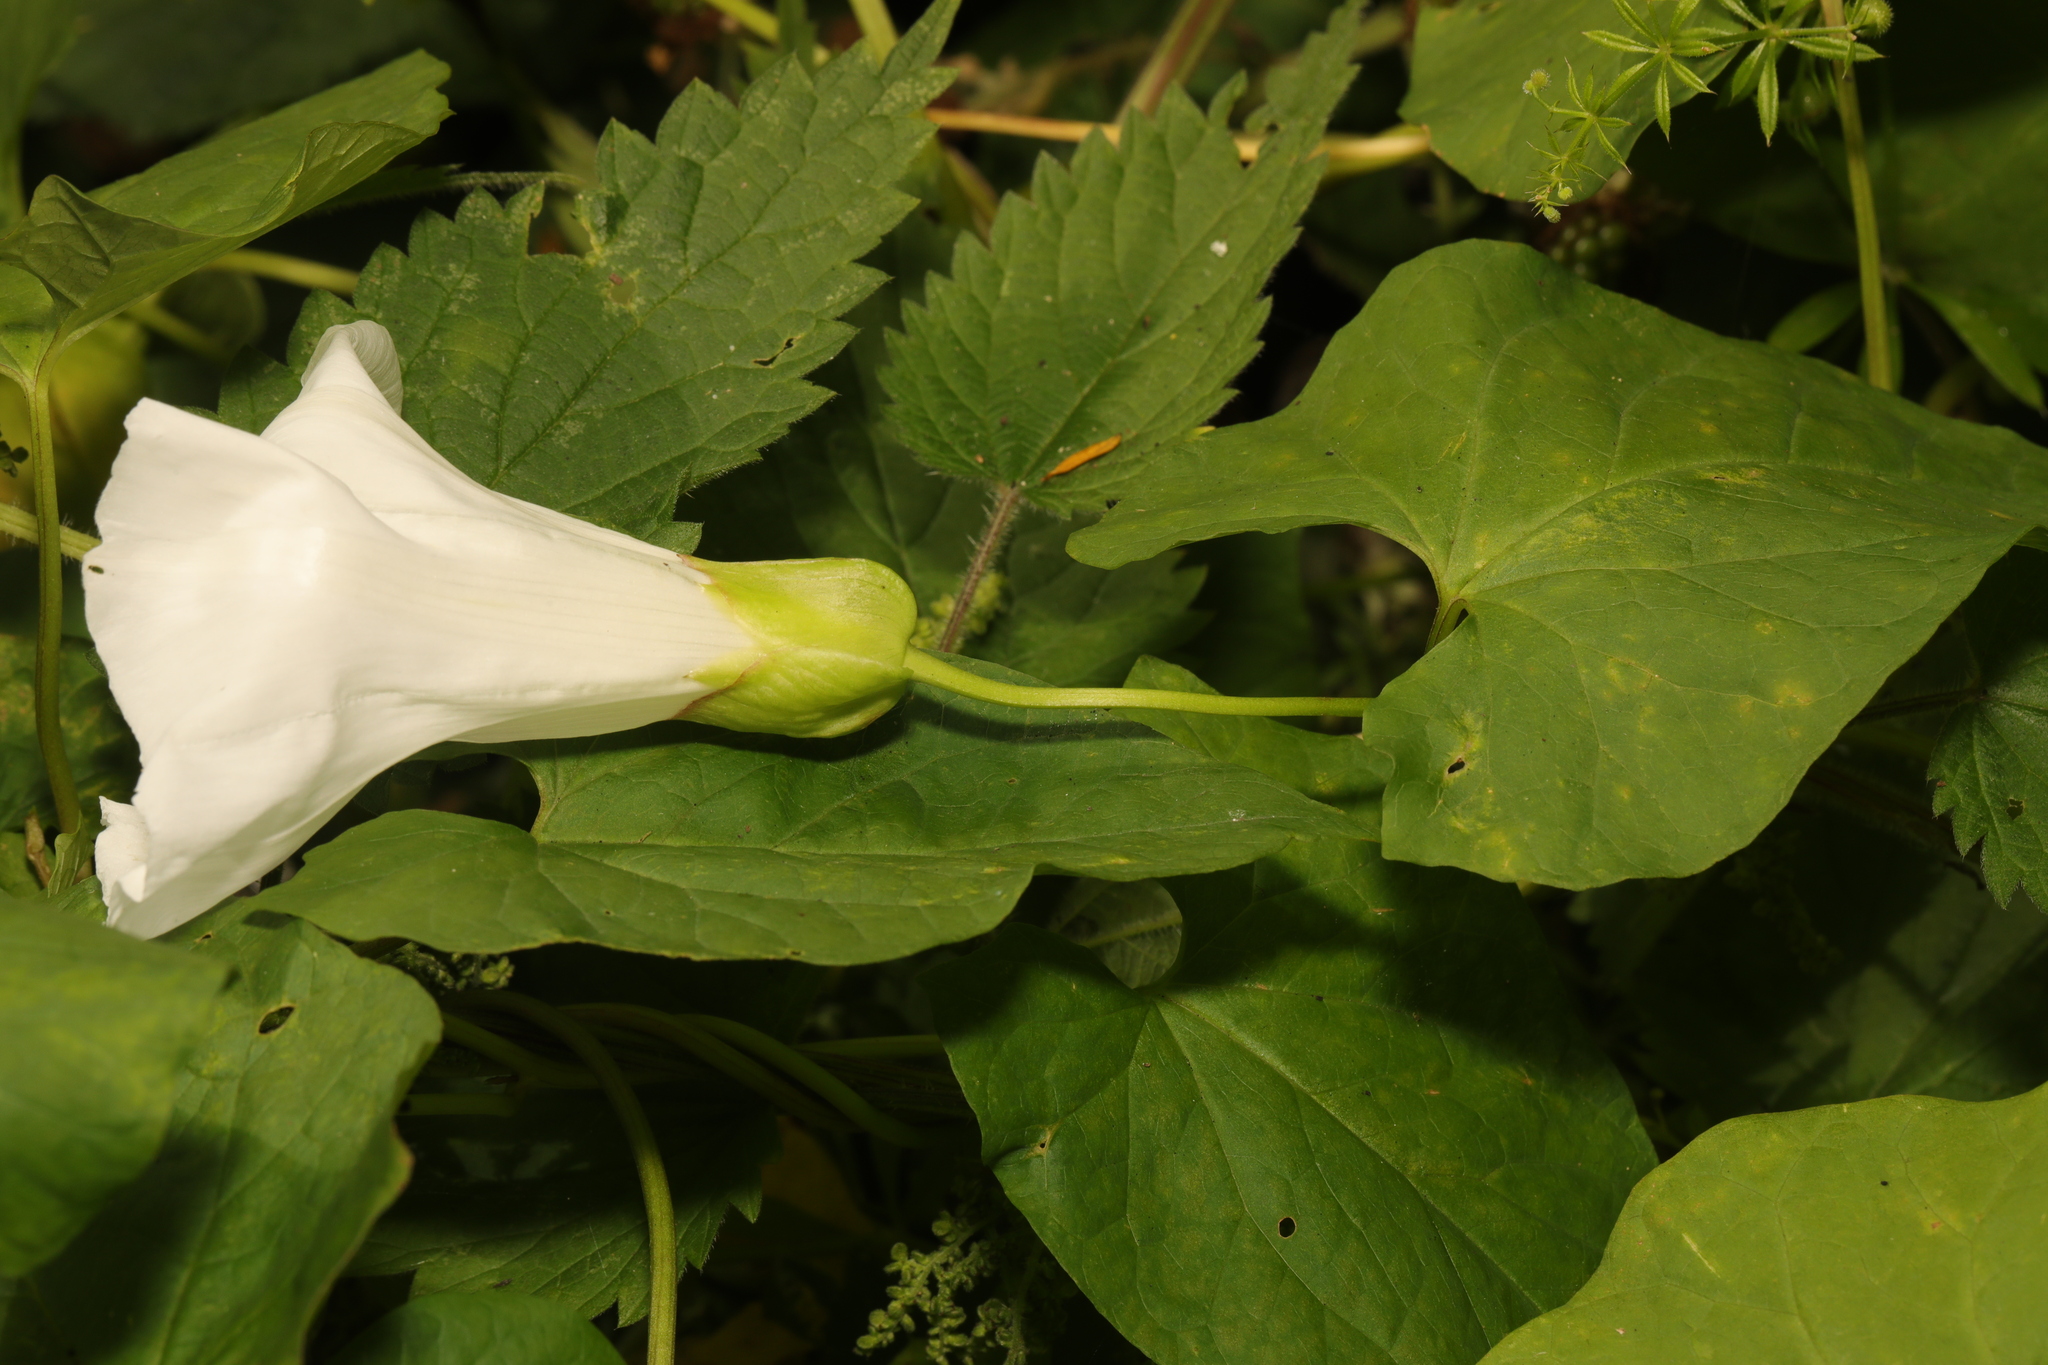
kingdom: Plantae
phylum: Tracheophyta
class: Magnoliopsida
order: Solanales
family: Convolvulaceae
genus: Calystegia
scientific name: Calystegia silvatica
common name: Large bindweed
